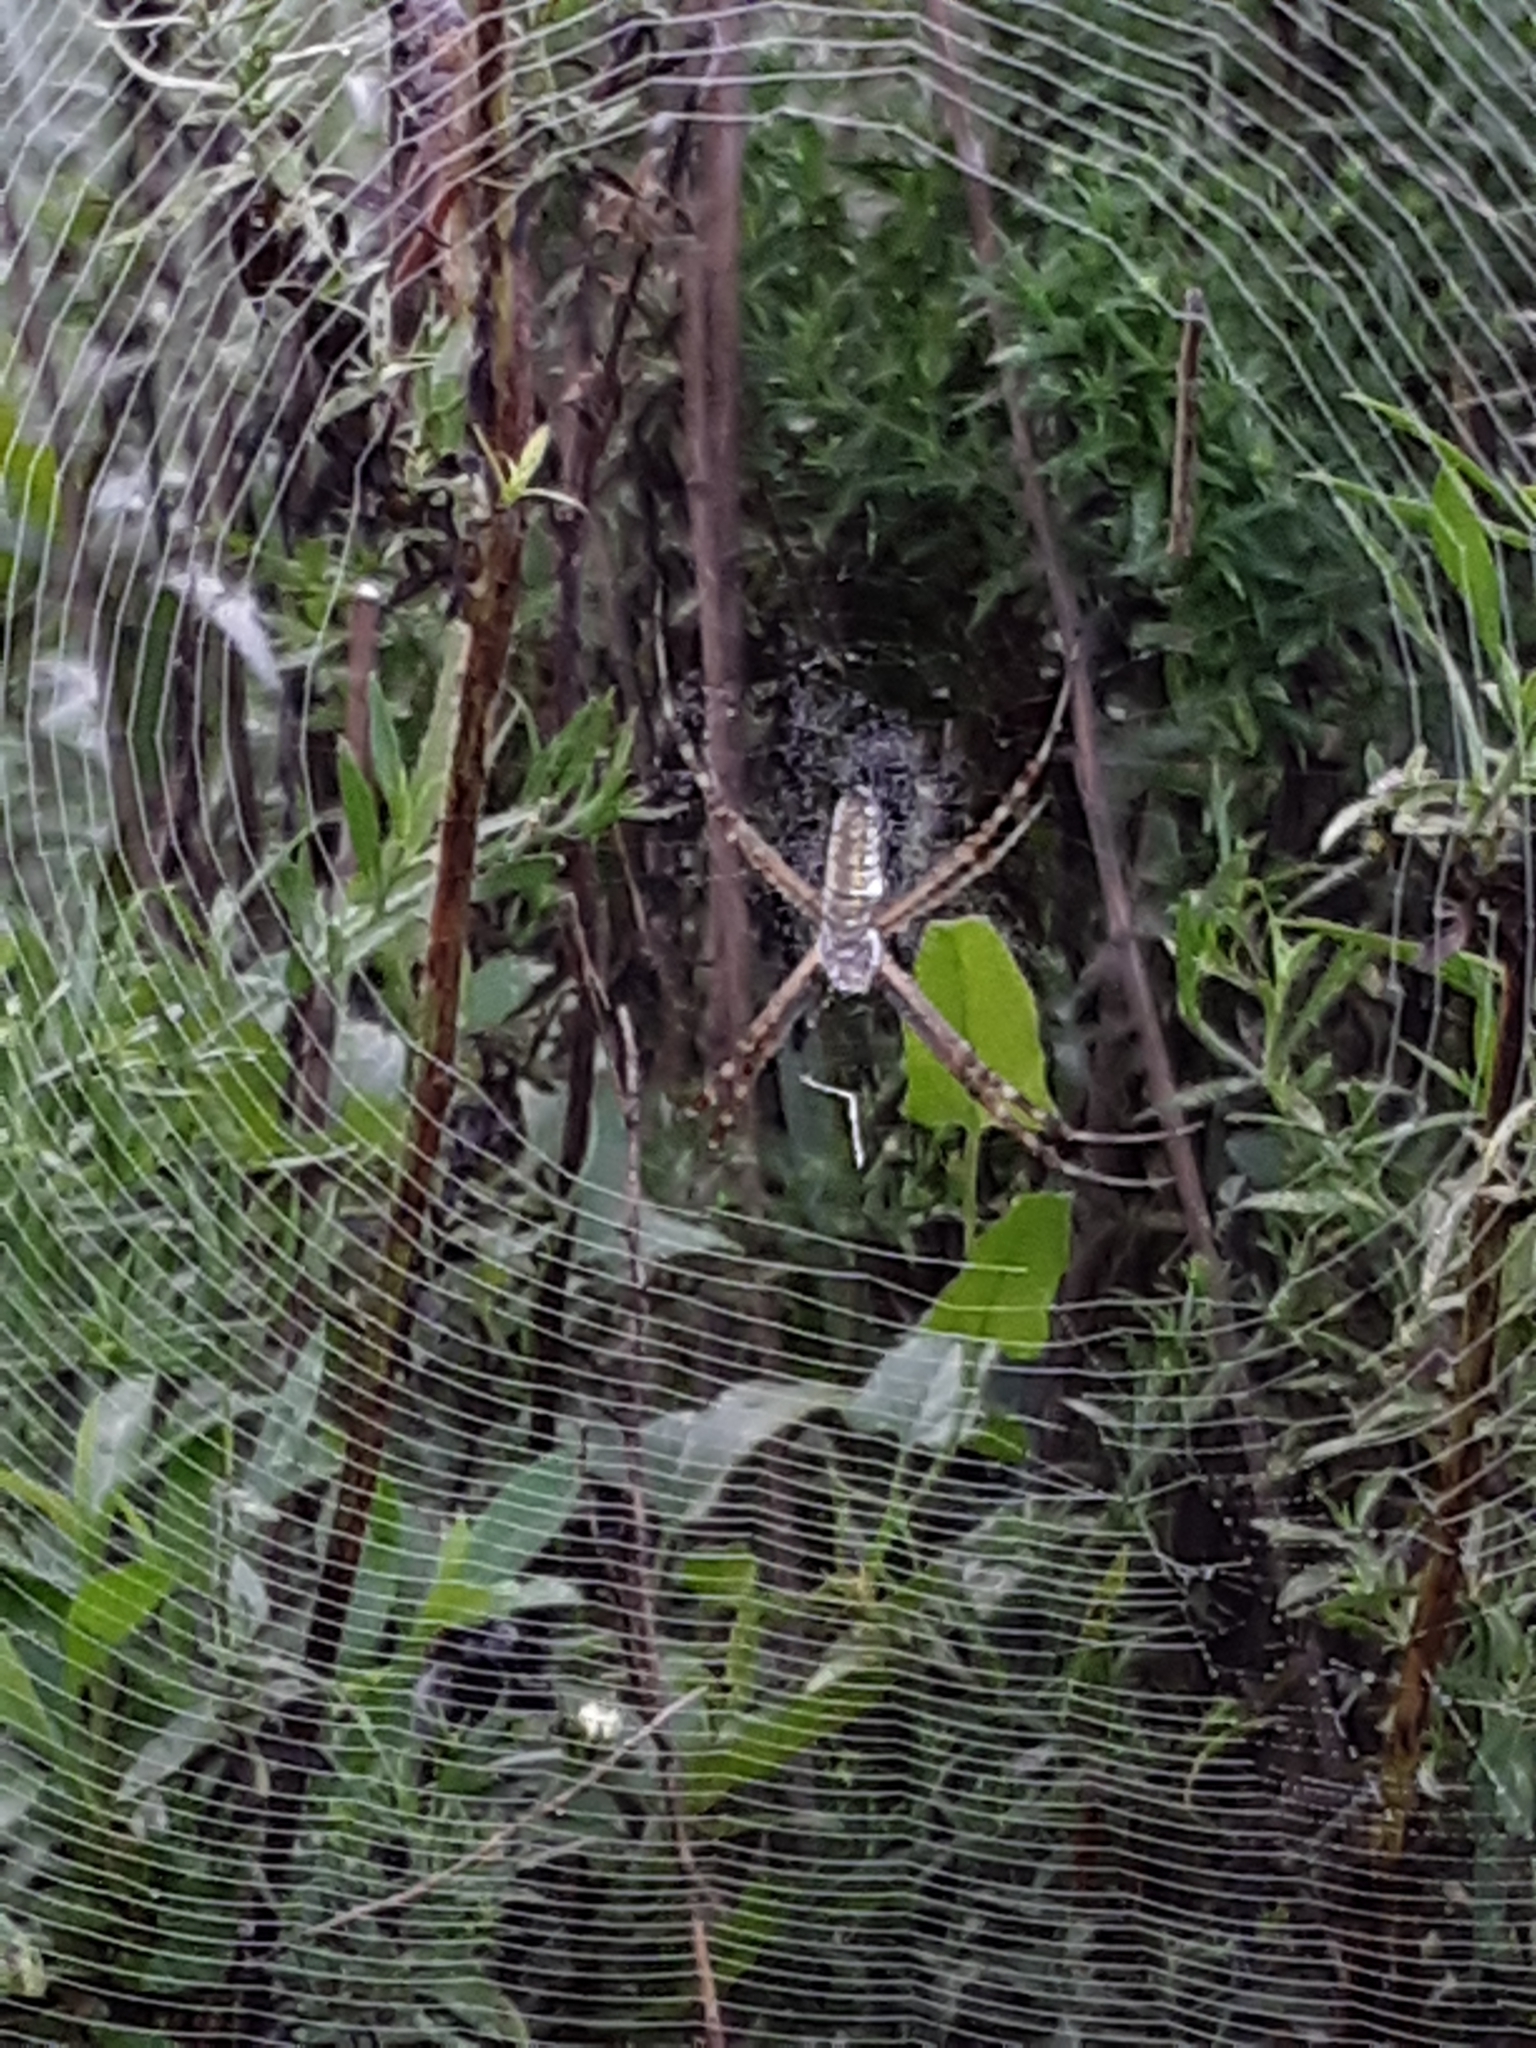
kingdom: Animalia
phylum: Arthropoda
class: Arachnida
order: Araneae
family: Araneidae
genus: Argiope
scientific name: Argiope trifasciata
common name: Banded garden spider
